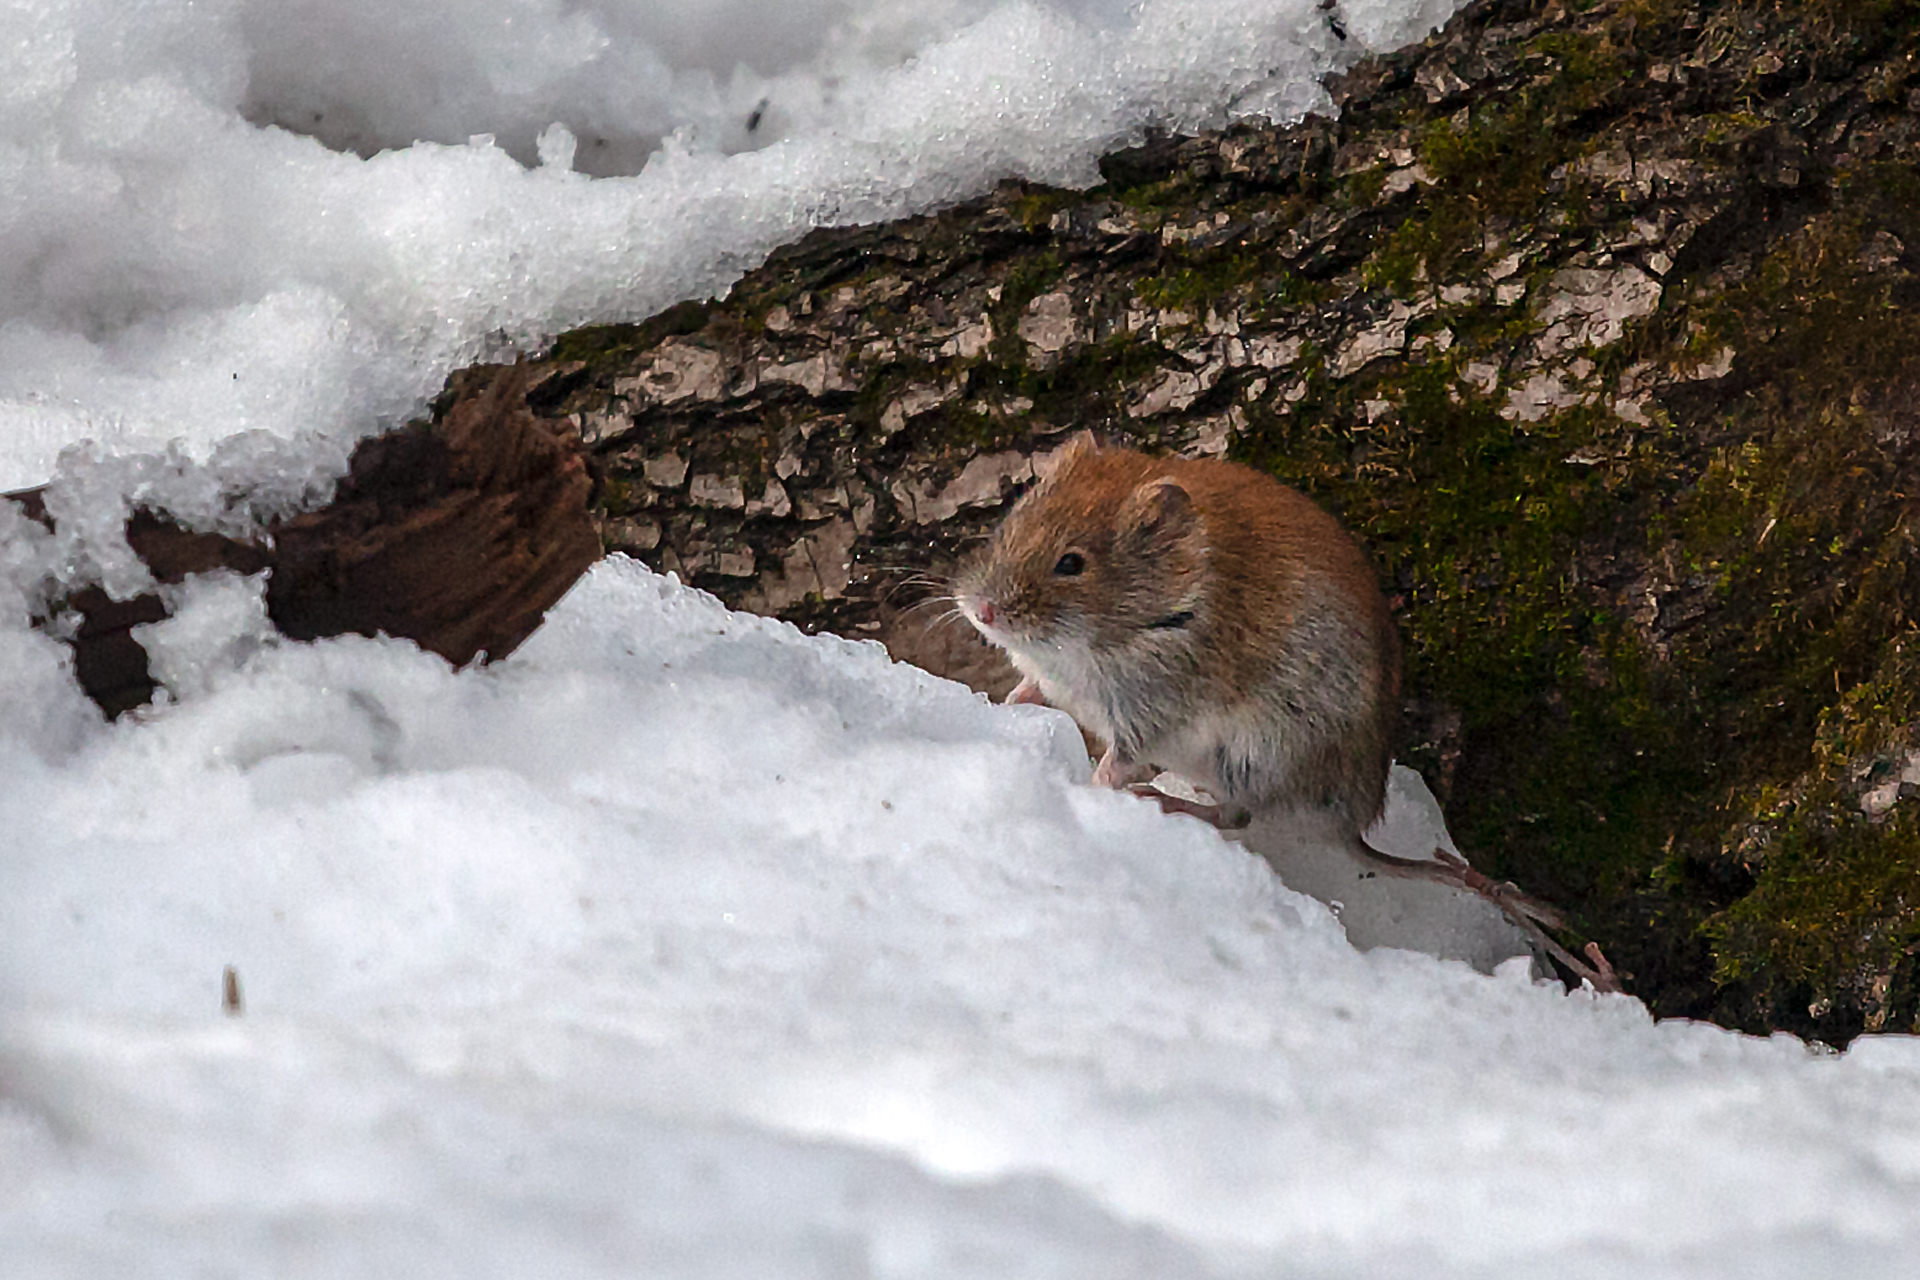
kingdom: Animalia
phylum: Chordata
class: Mammalia
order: Rodentia
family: Cricetidae
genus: Myodes
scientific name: Myodes glareolus
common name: Bank vole
